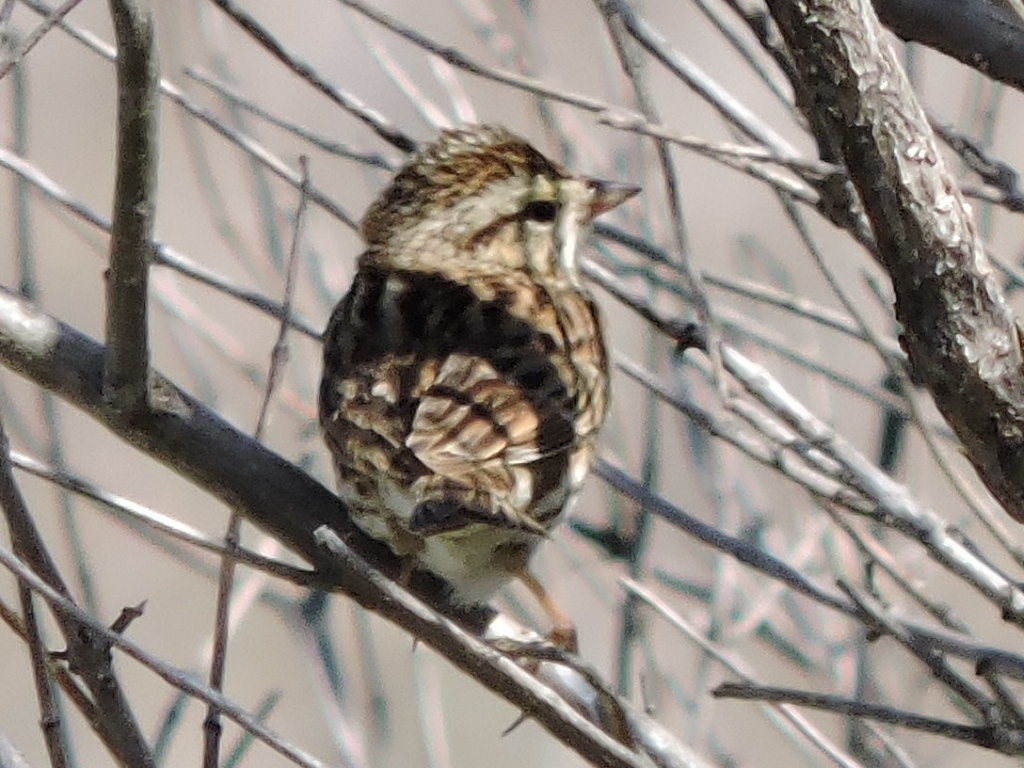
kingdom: Animalia
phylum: Chordata
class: Aves
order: Passeriformes
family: Passerellidae
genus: Passerculus
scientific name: Passerculus sandwichensis
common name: Savannah sparrow
